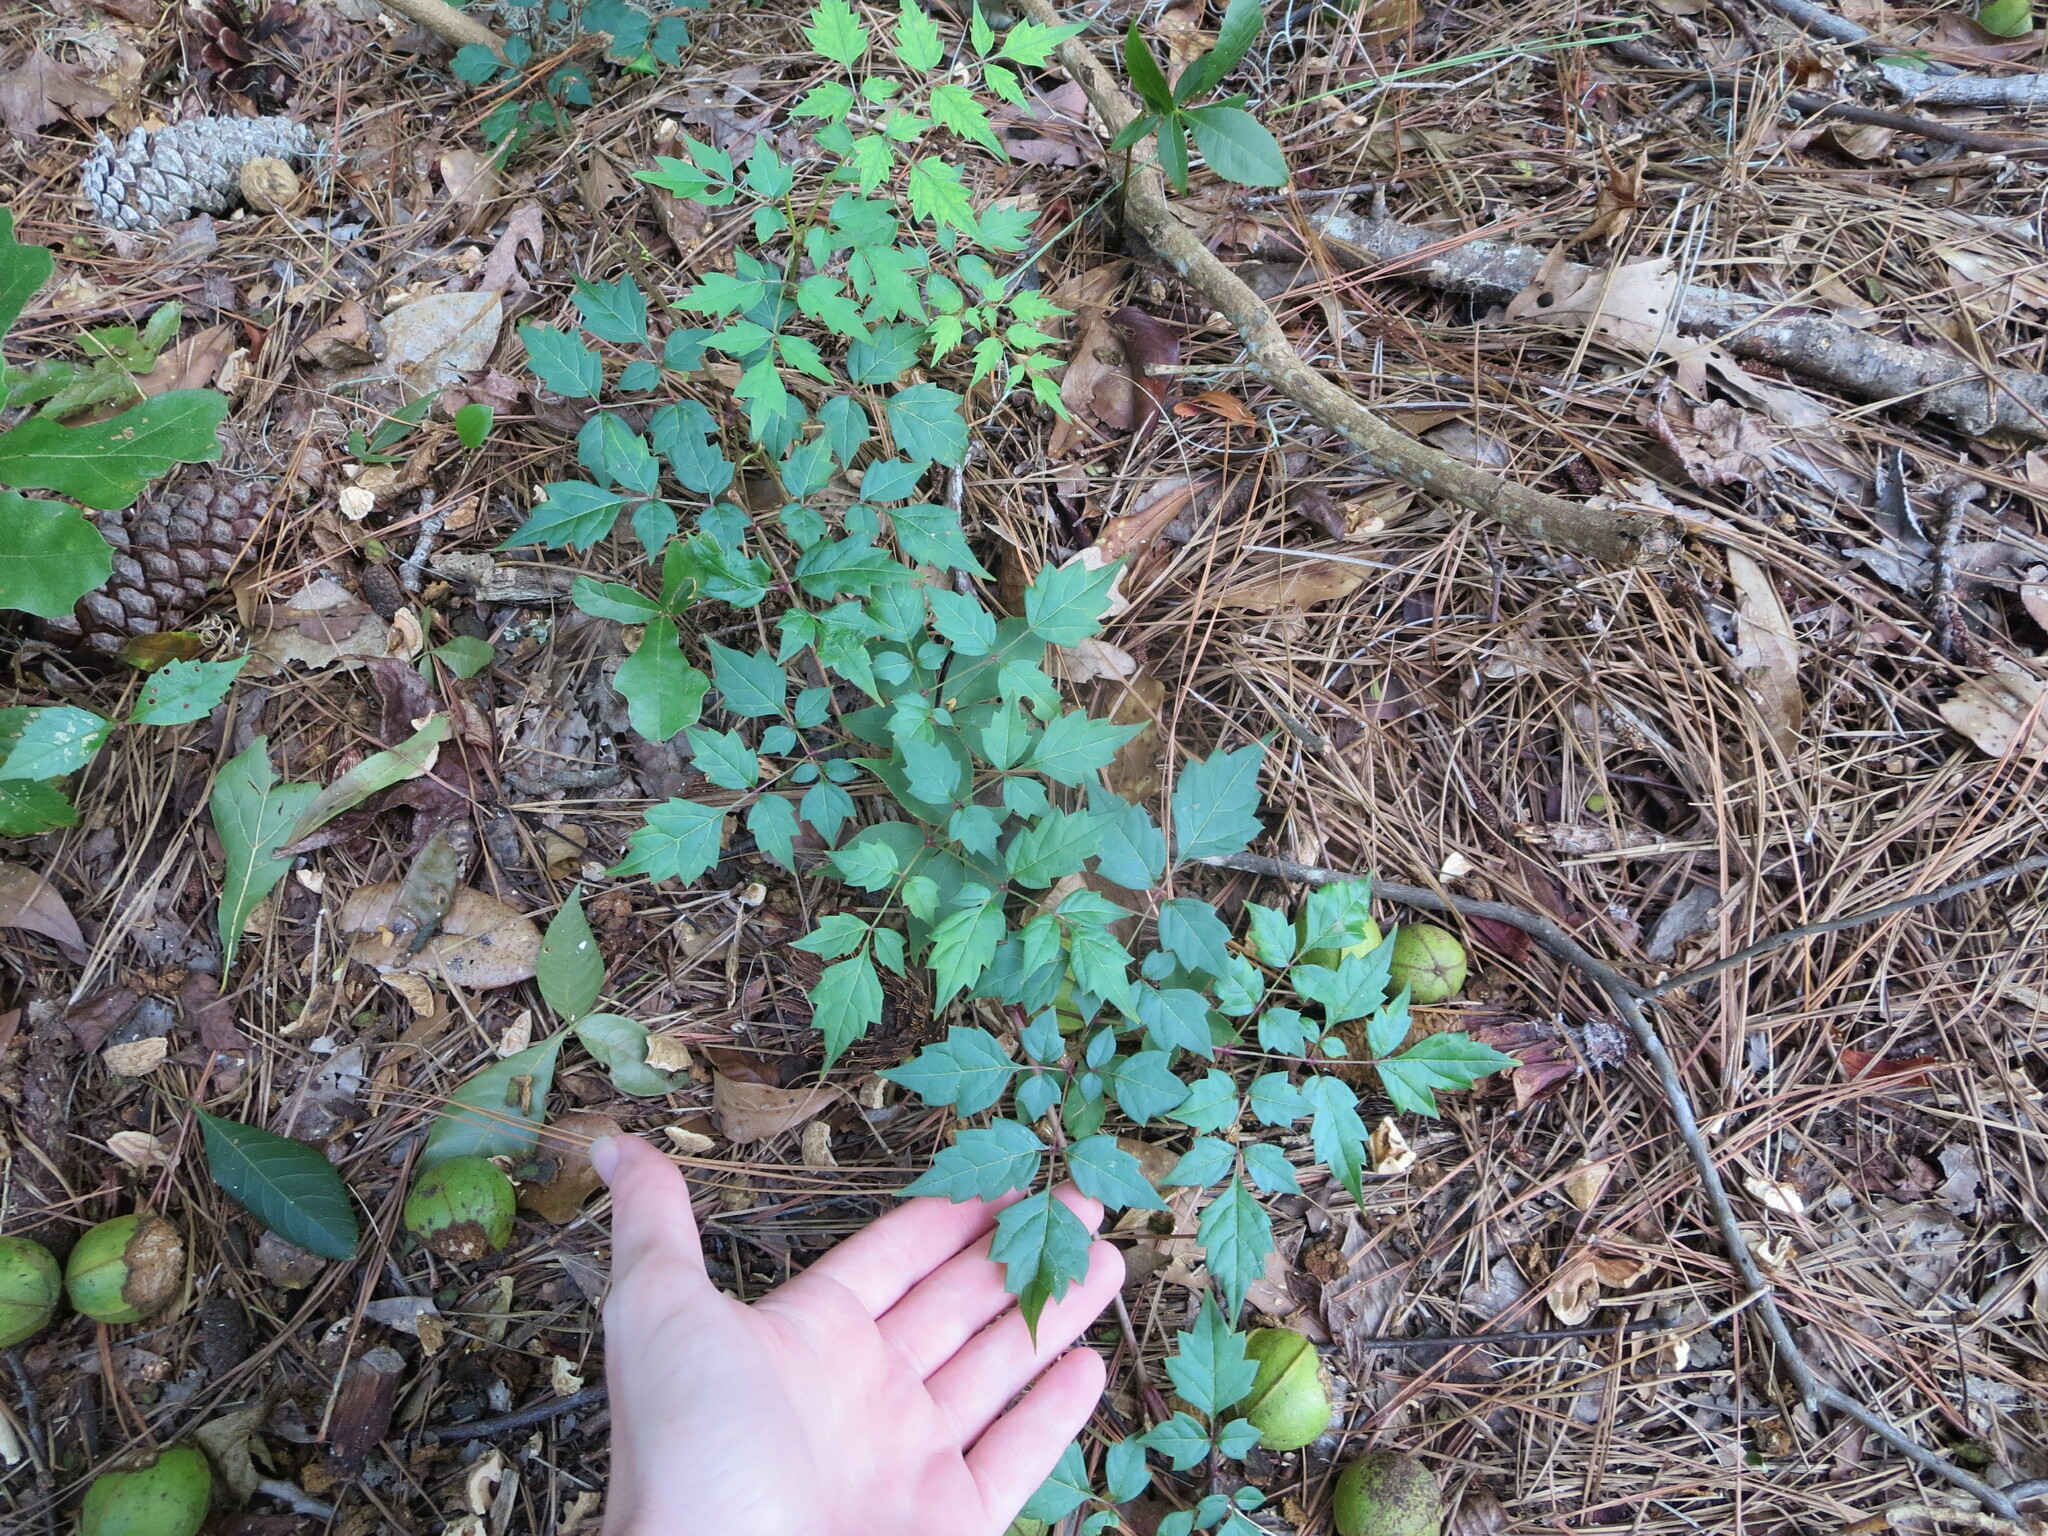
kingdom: Plantae
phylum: Tracheophyta
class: Magnoliopsida
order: Vitales
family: Vitaceae
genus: Nekemias
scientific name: Nekemias arborea
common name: Peppervine
